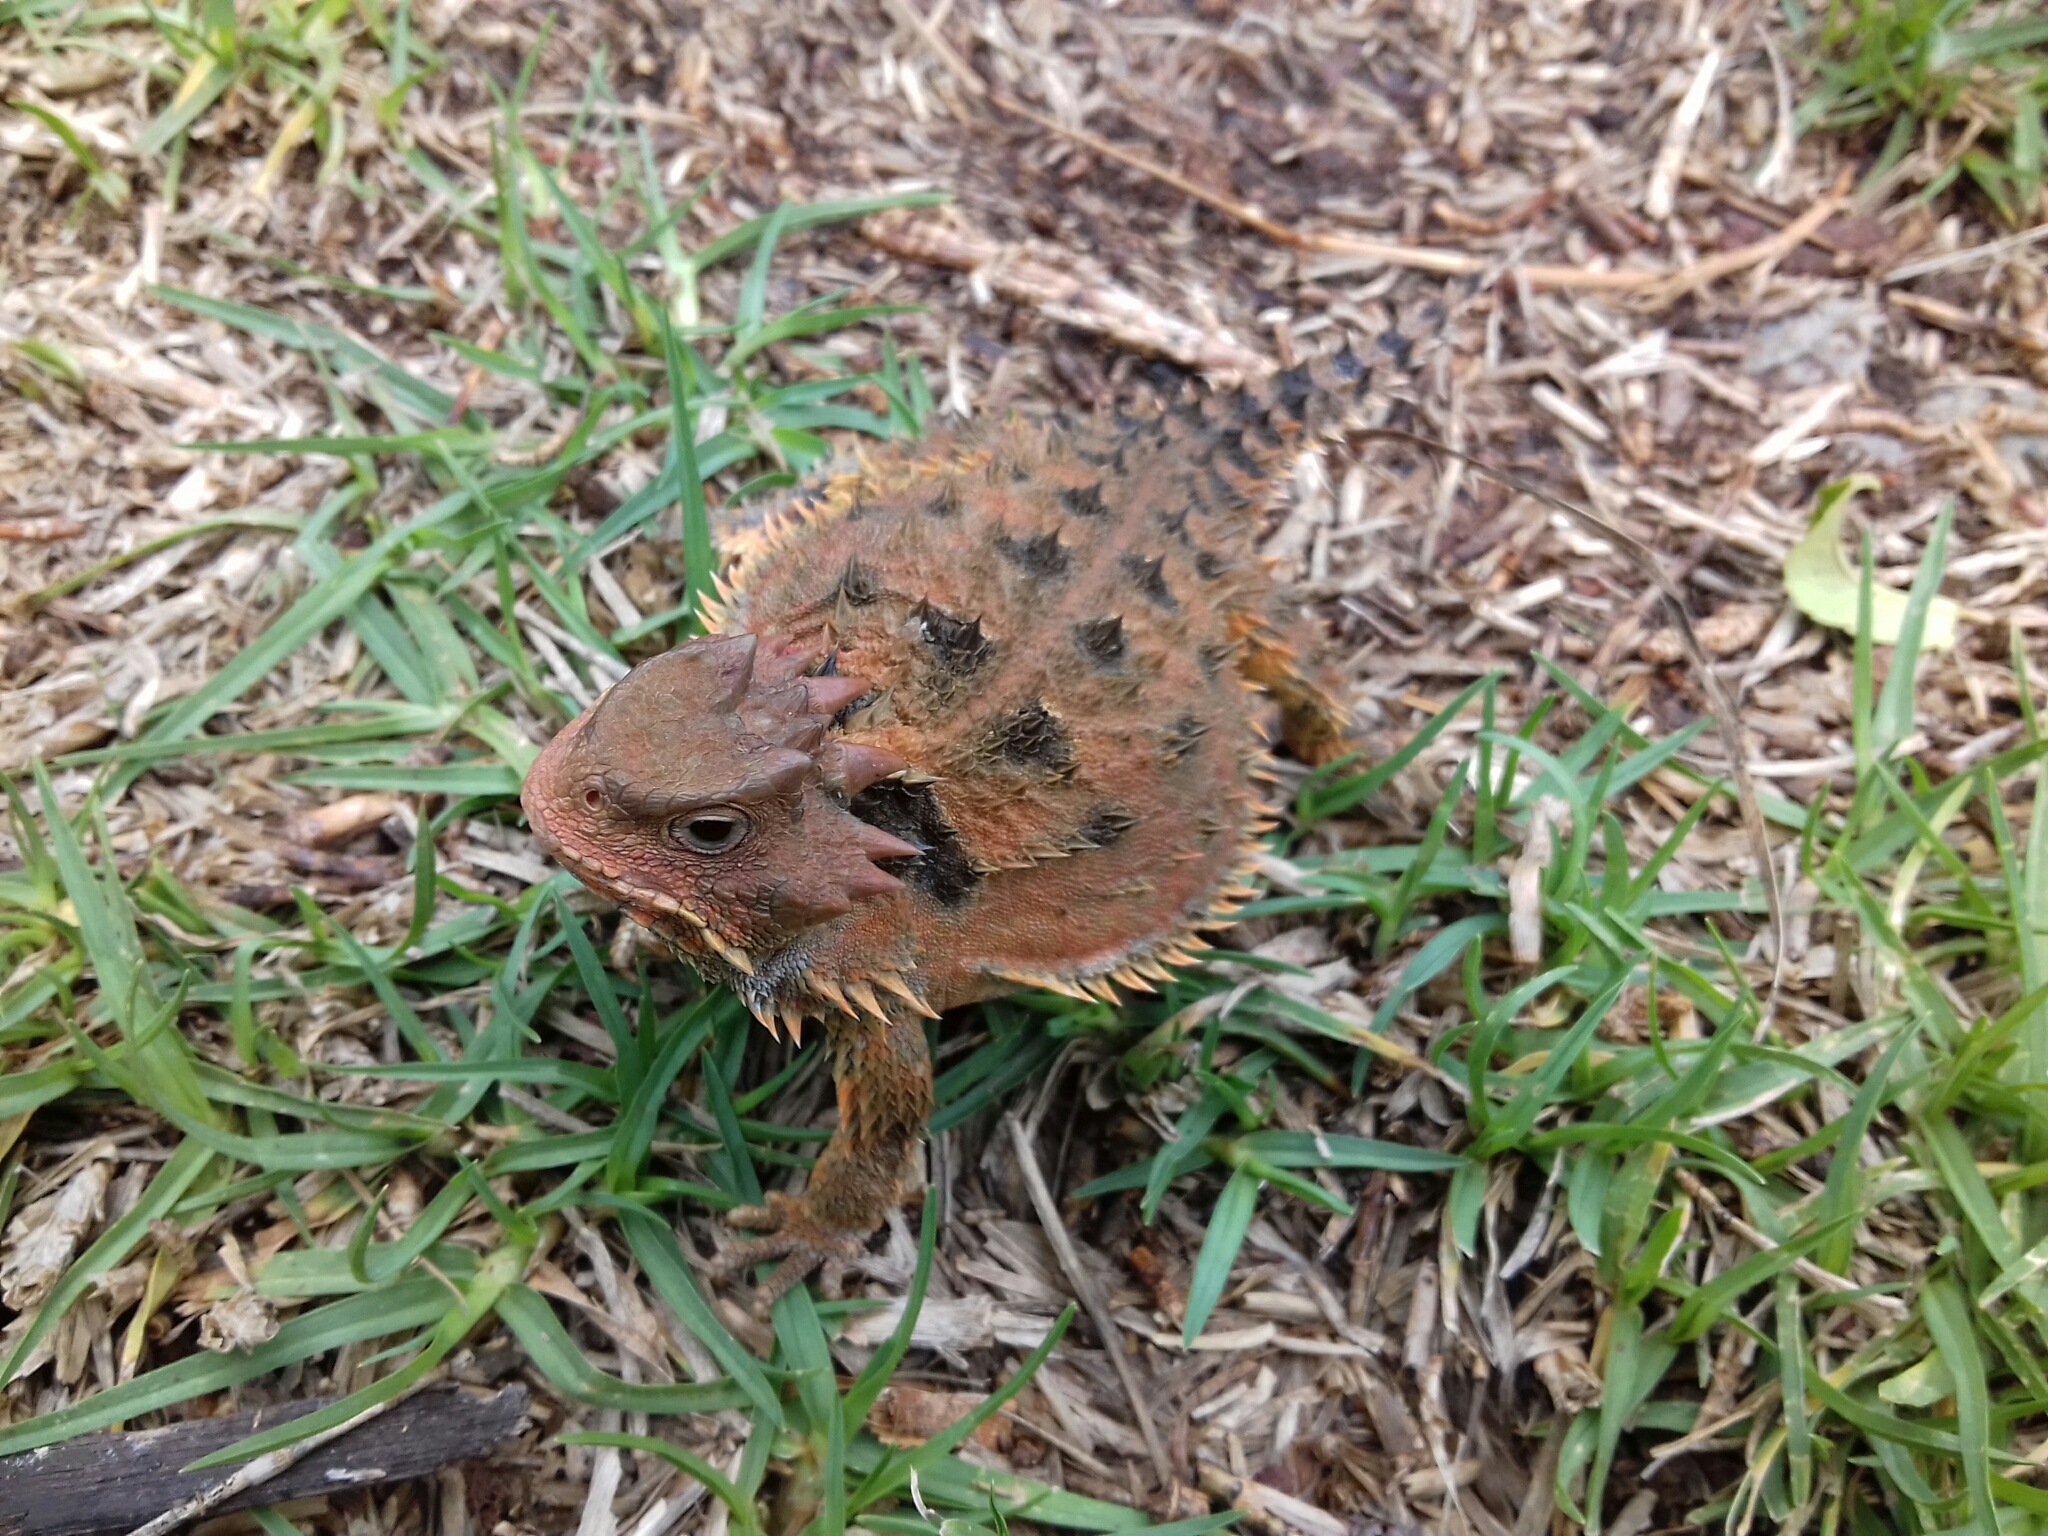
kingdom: Animalia
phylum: Chordata
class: Squamata
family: Phrynosomatidae
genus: Phrynosoma
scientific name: Phrynosoma orbiculare
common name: Mountain horned lizard
